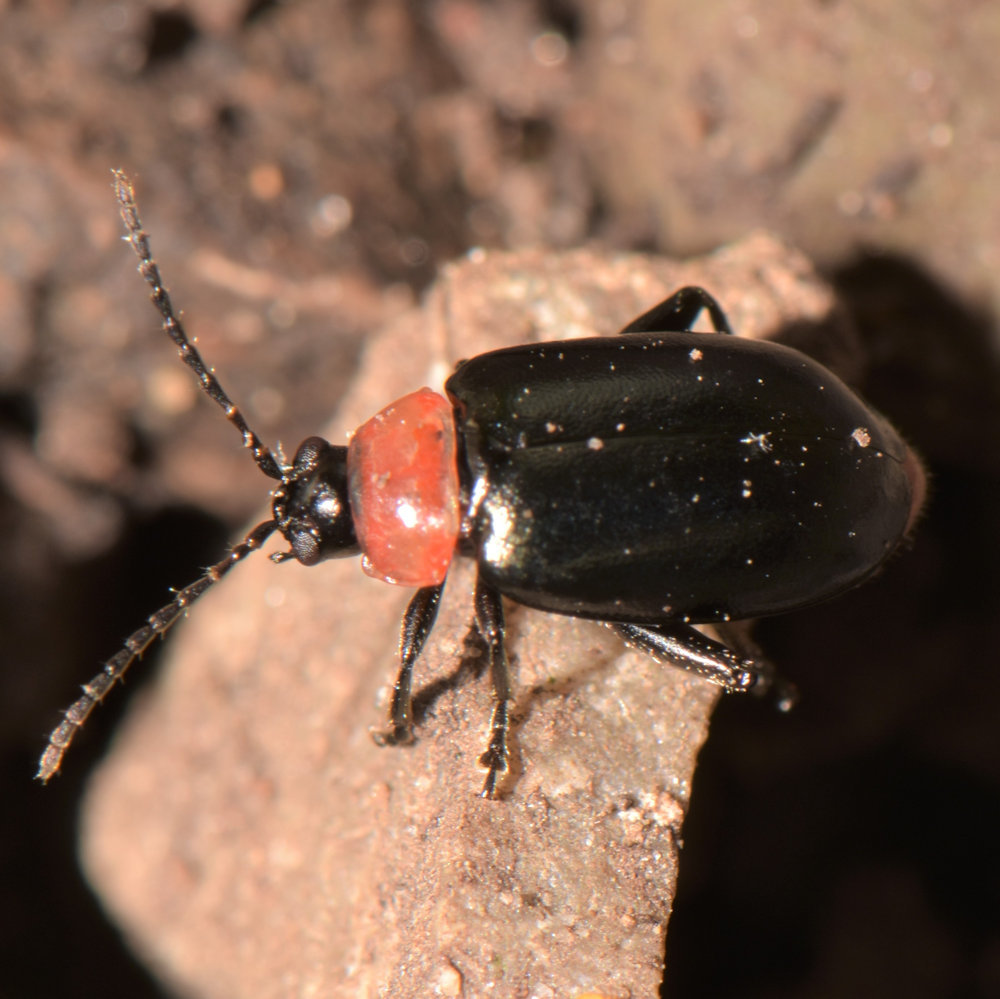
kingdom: Animalia
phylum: Arthropoda
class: Insecta
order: Coleoptera
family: Chrysomelidae
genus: Disonycha
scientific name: Disonycha xanthomelas
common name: Spinach flea beetle
